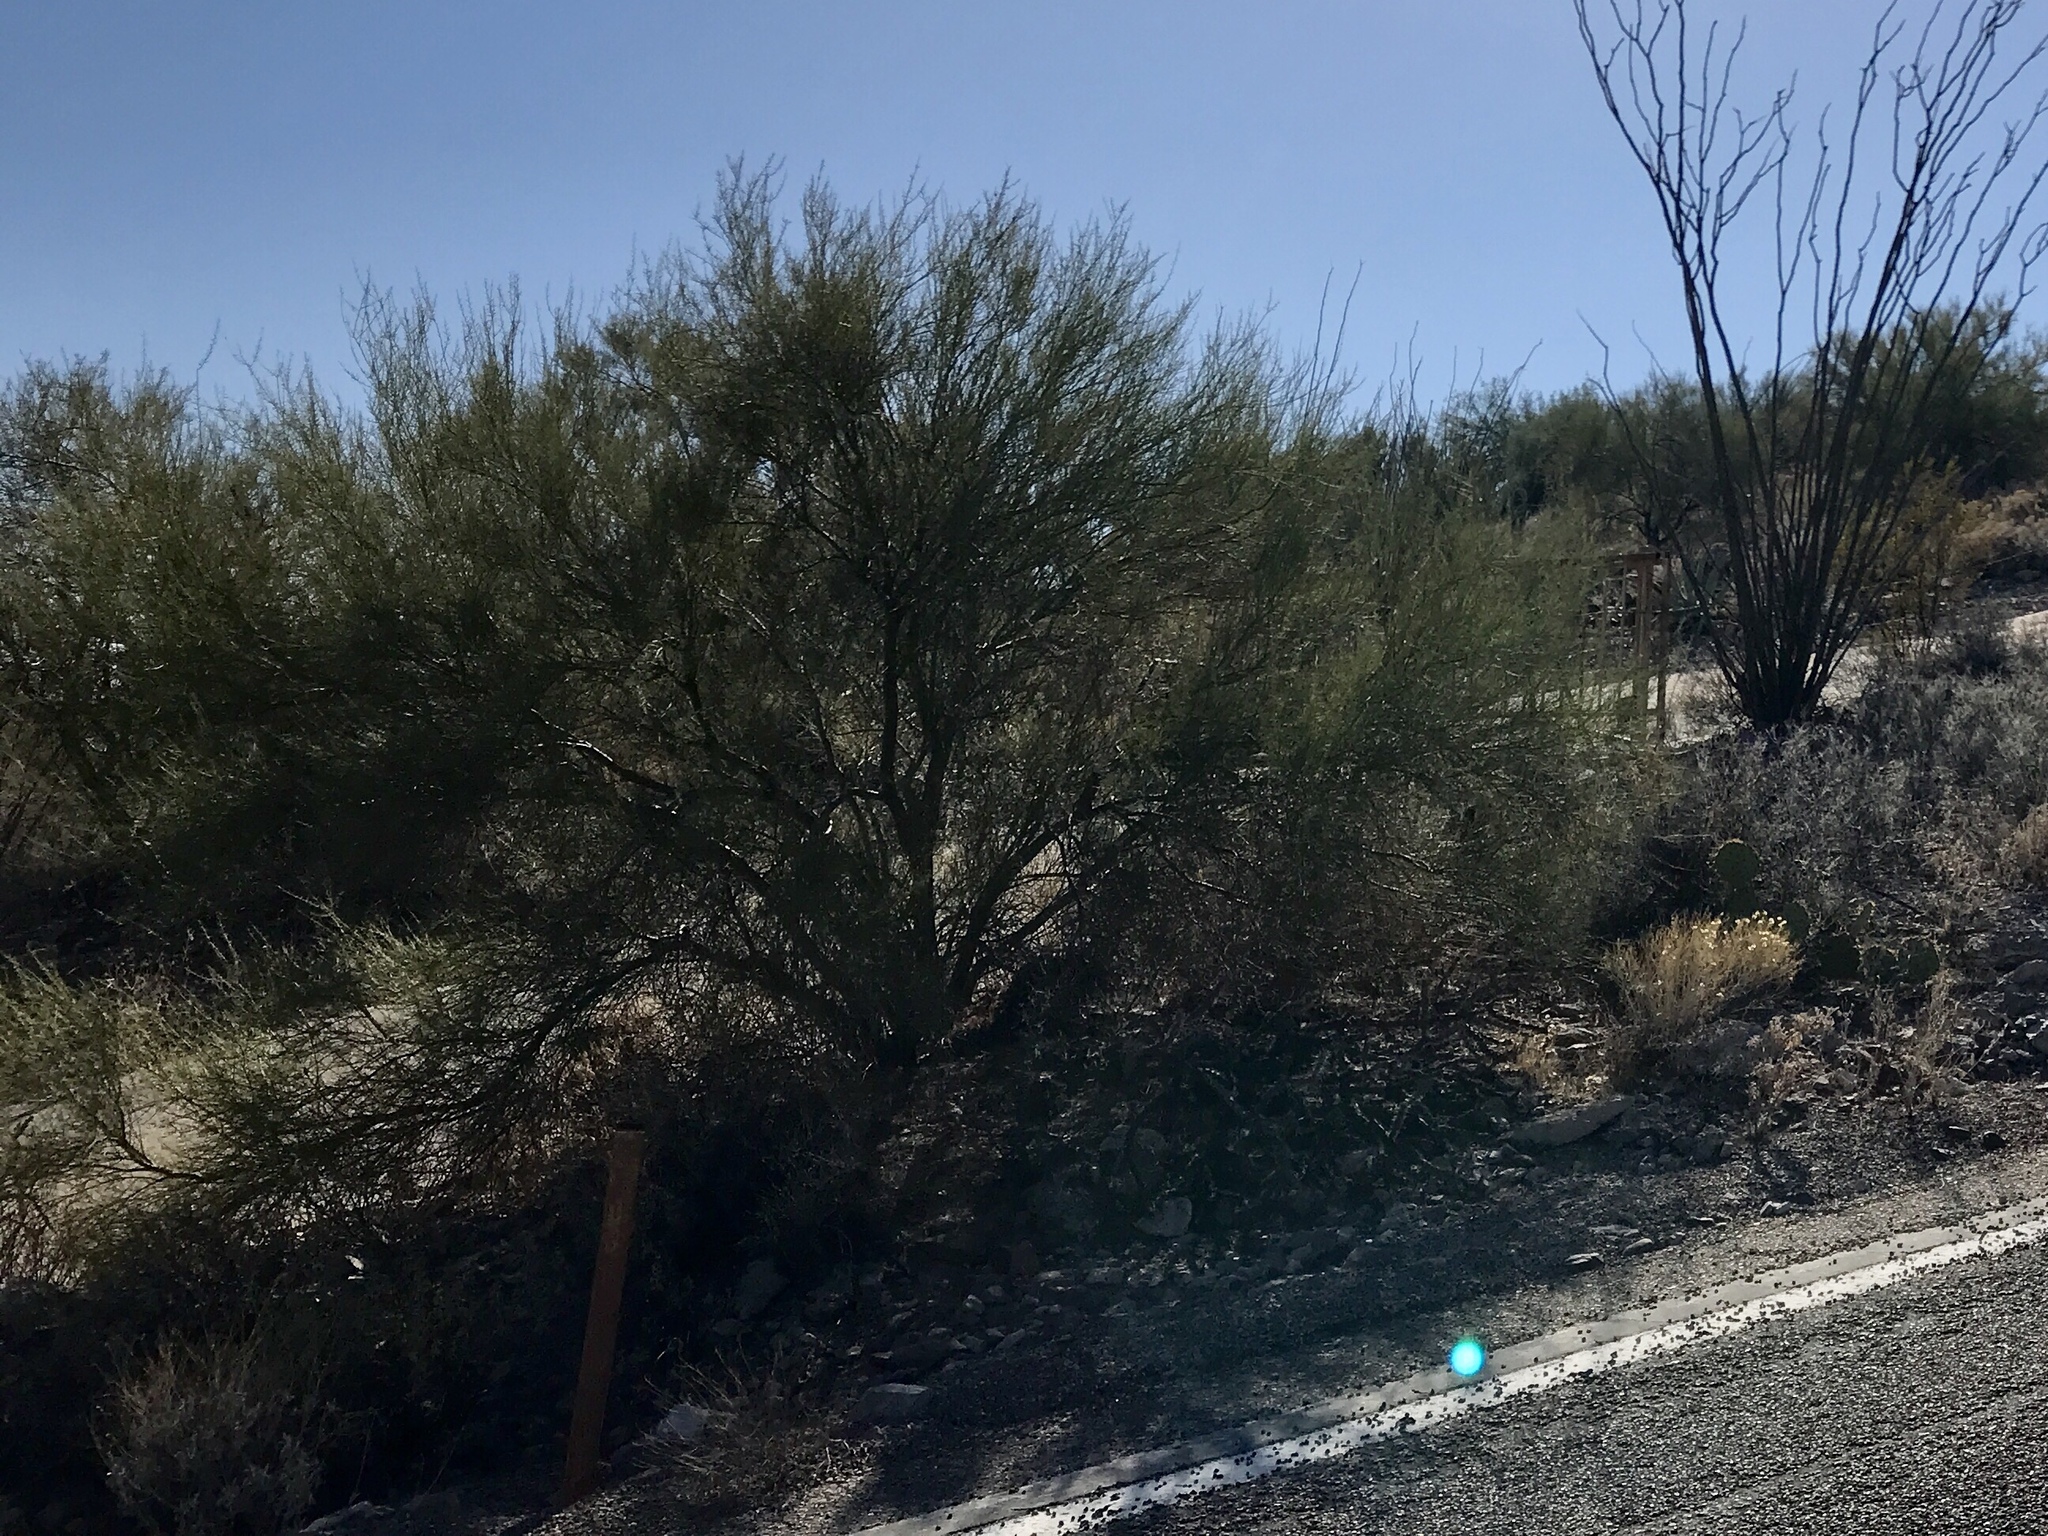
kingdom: Plantae
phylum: Tracheophyta
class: Magnoliopsida
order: Fabales
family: Fabaceae
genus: Parkinsonia
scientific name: Parkinsonia florida
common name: Blue paloverde
